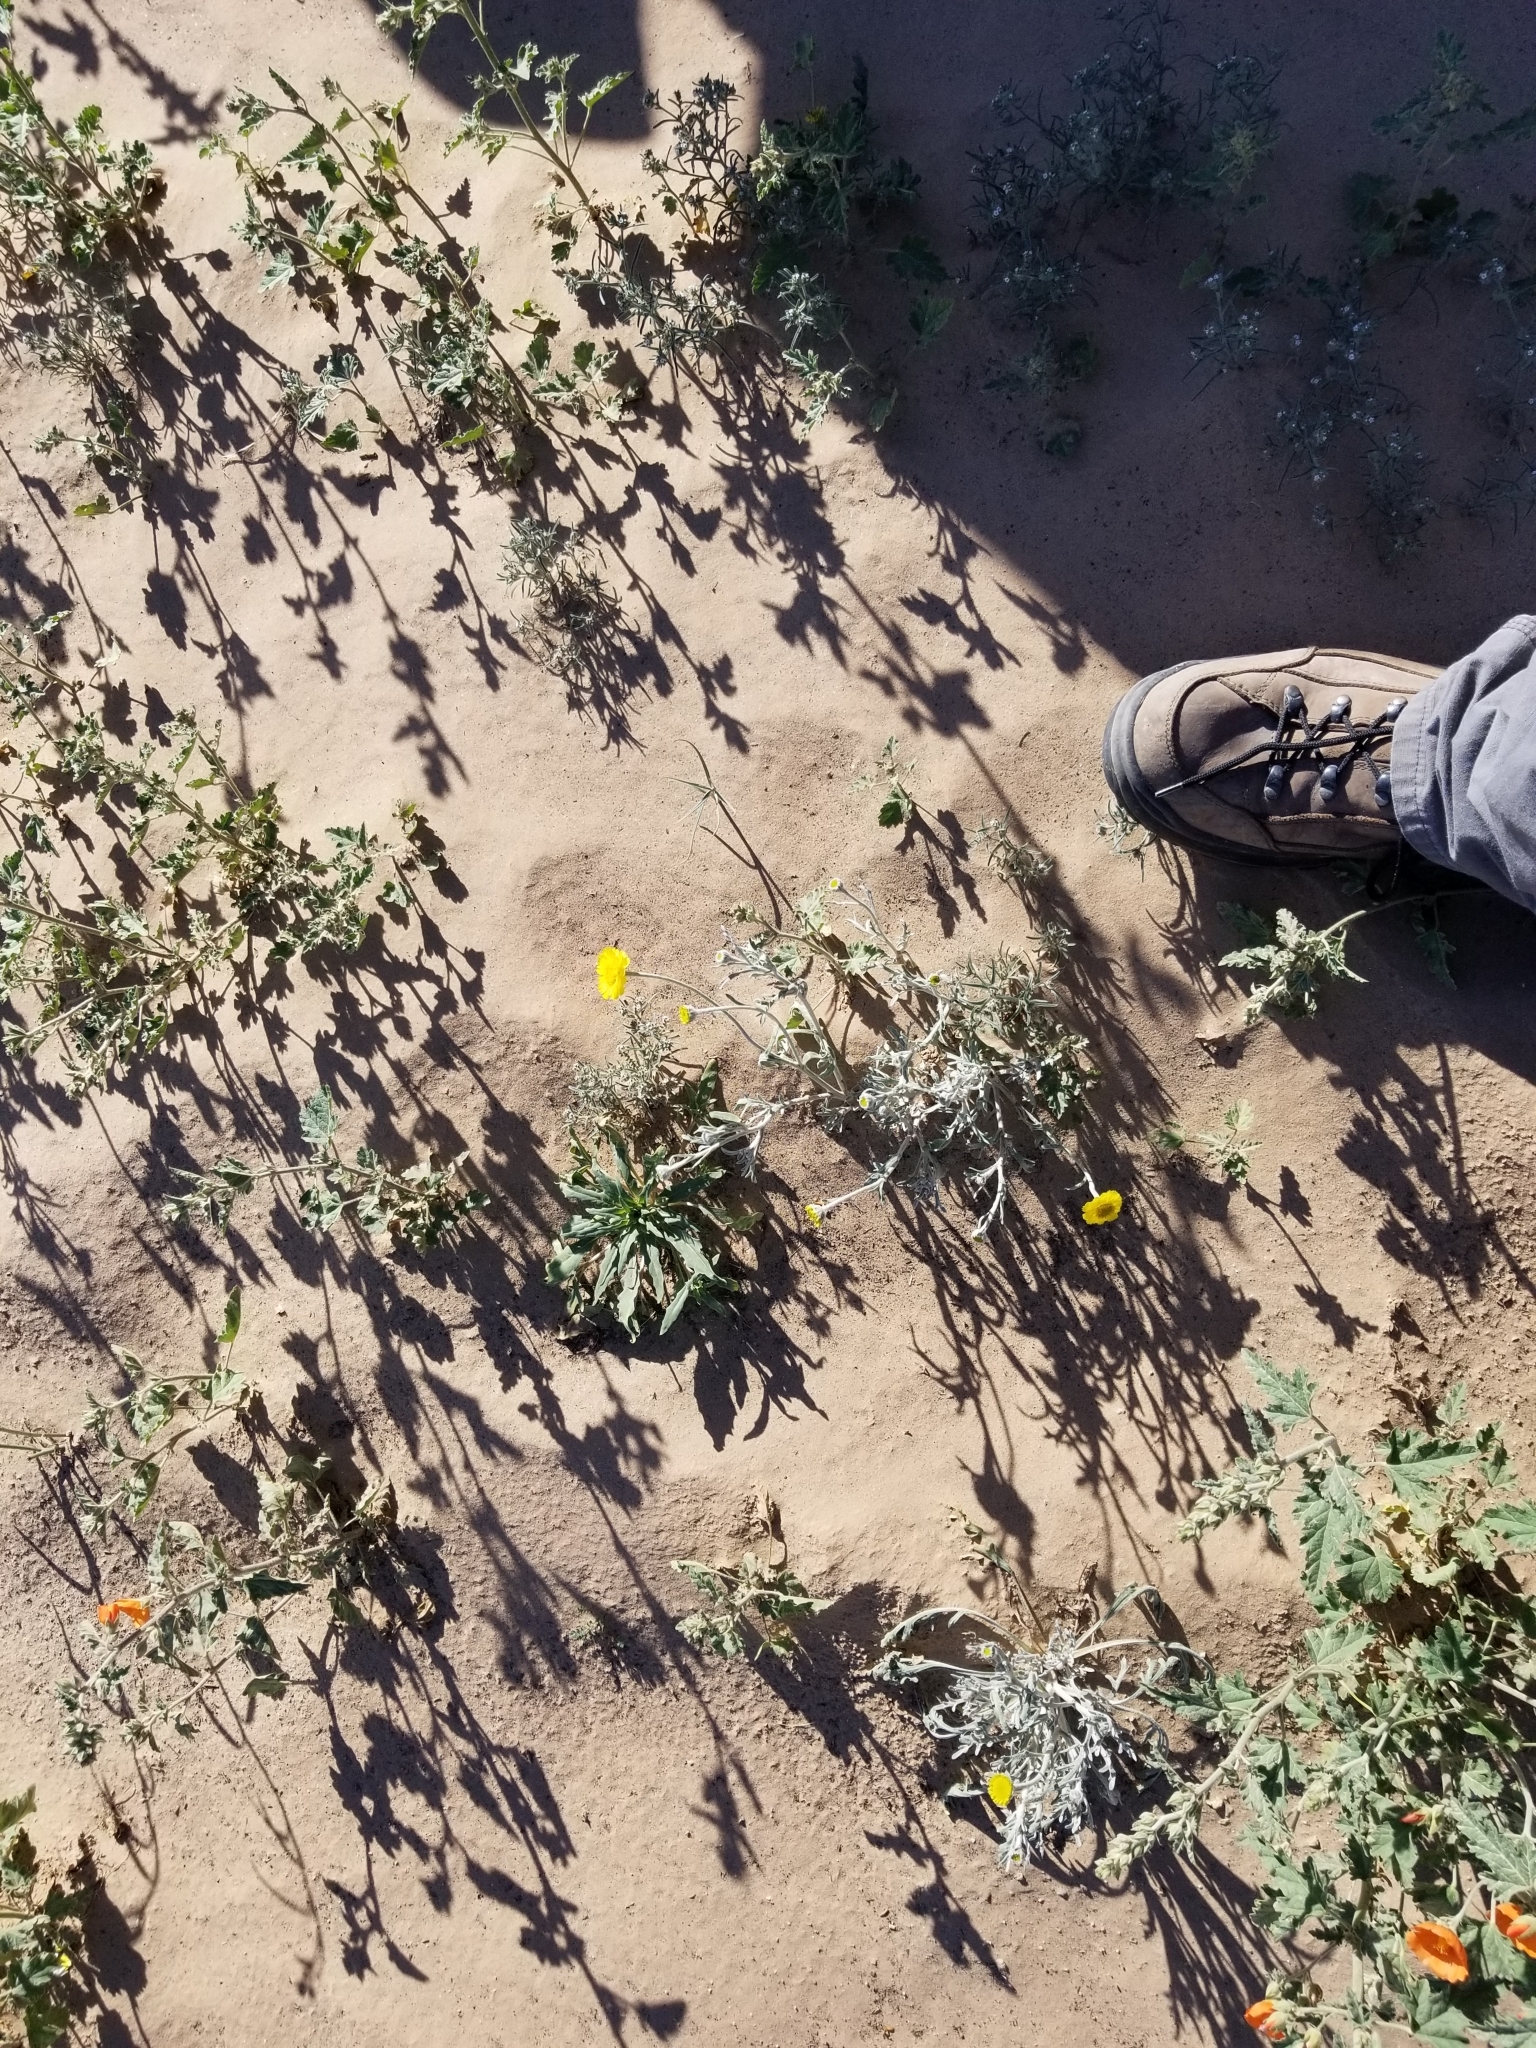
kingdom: Plantae
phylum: Tracheophyta
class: Magnoliopsida
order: Asterales
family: Asteraceae
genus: Baileya
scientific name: Baileya pleniradiata
